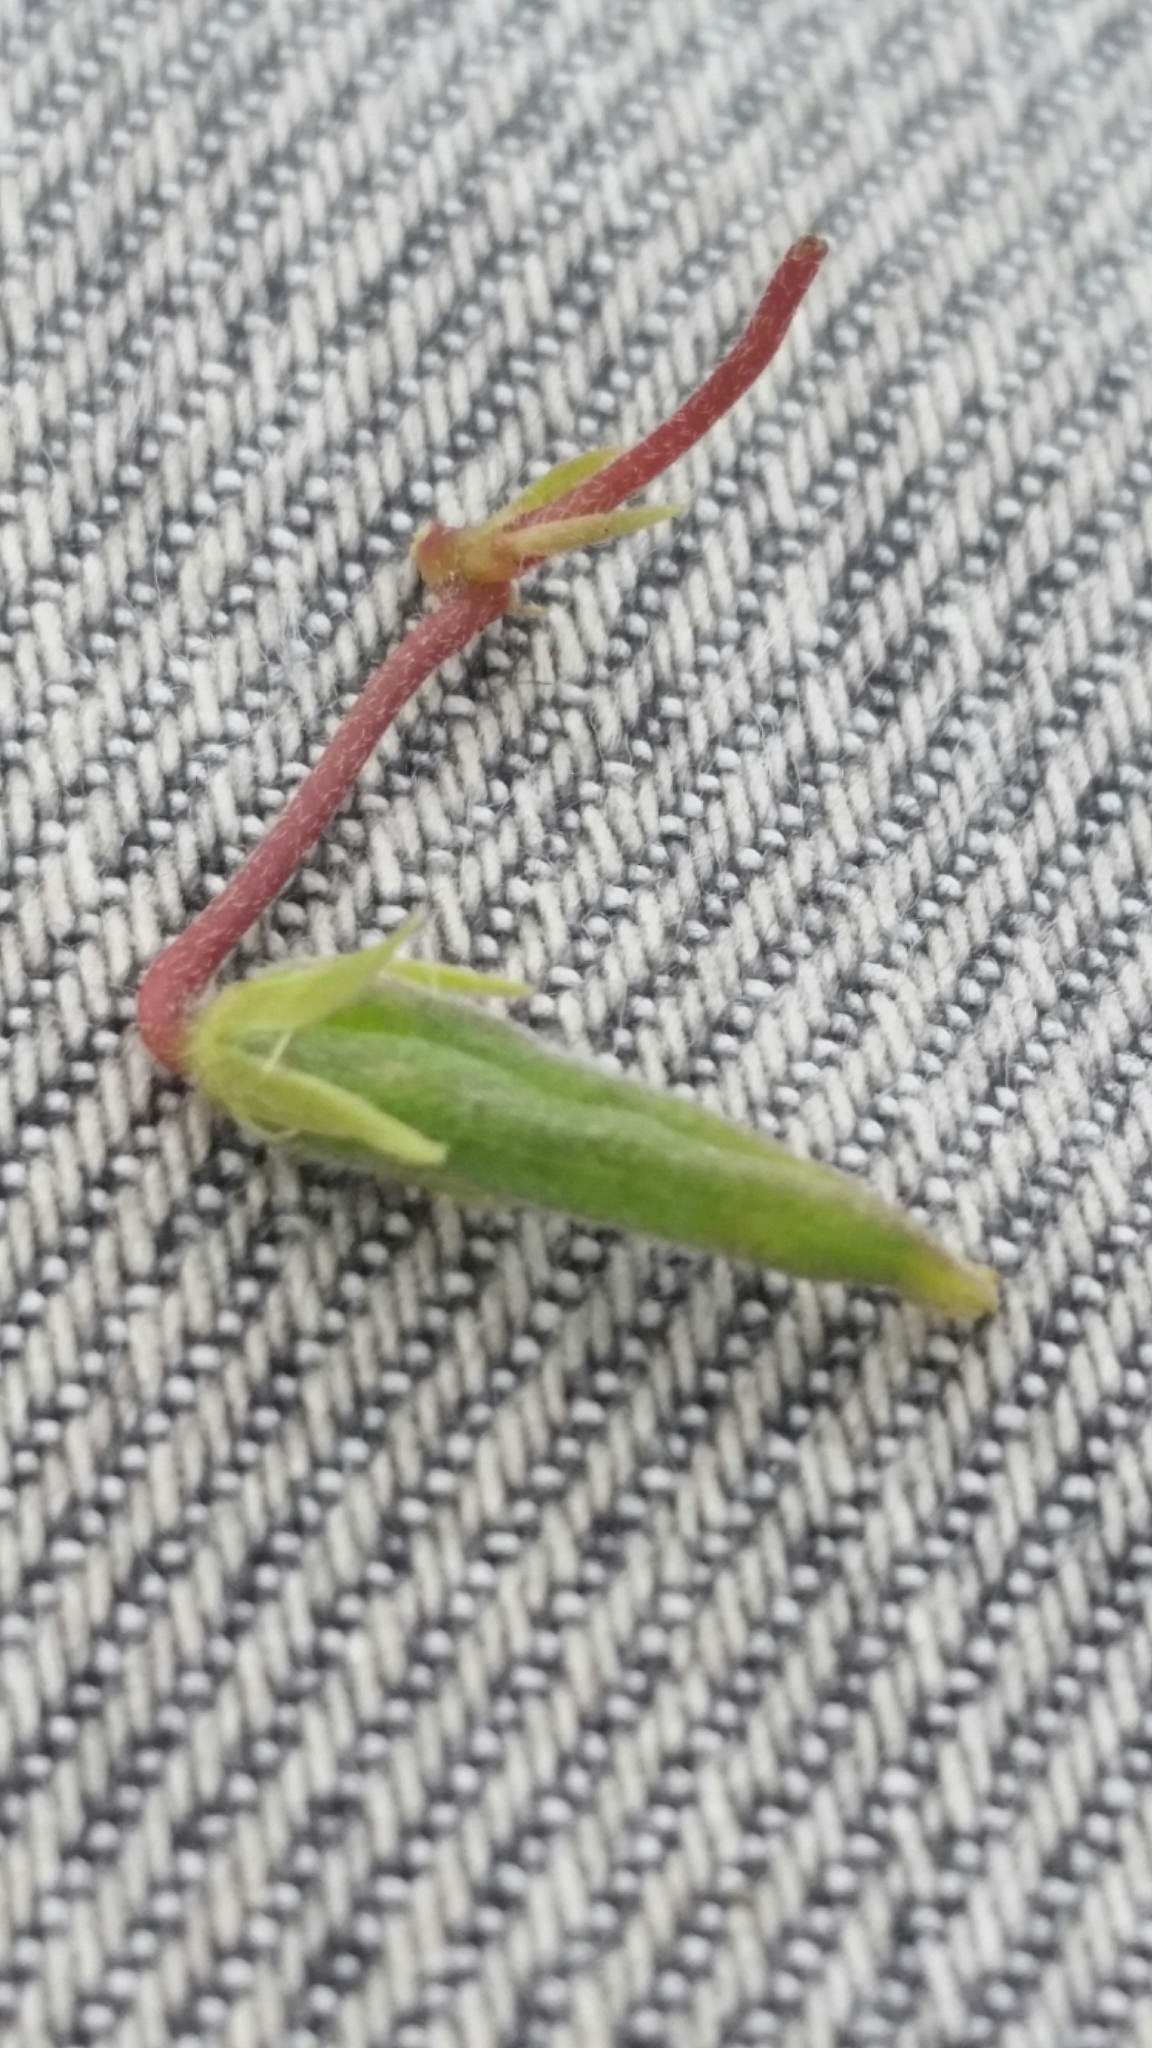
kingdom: Plantae
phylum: Tracheophyta
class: Magnoliopsida
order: Oxalidales
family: Oxalidaceae
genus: Oxalis
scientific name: Oxalis corniculata
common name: Procumbent yellow-sorrel
